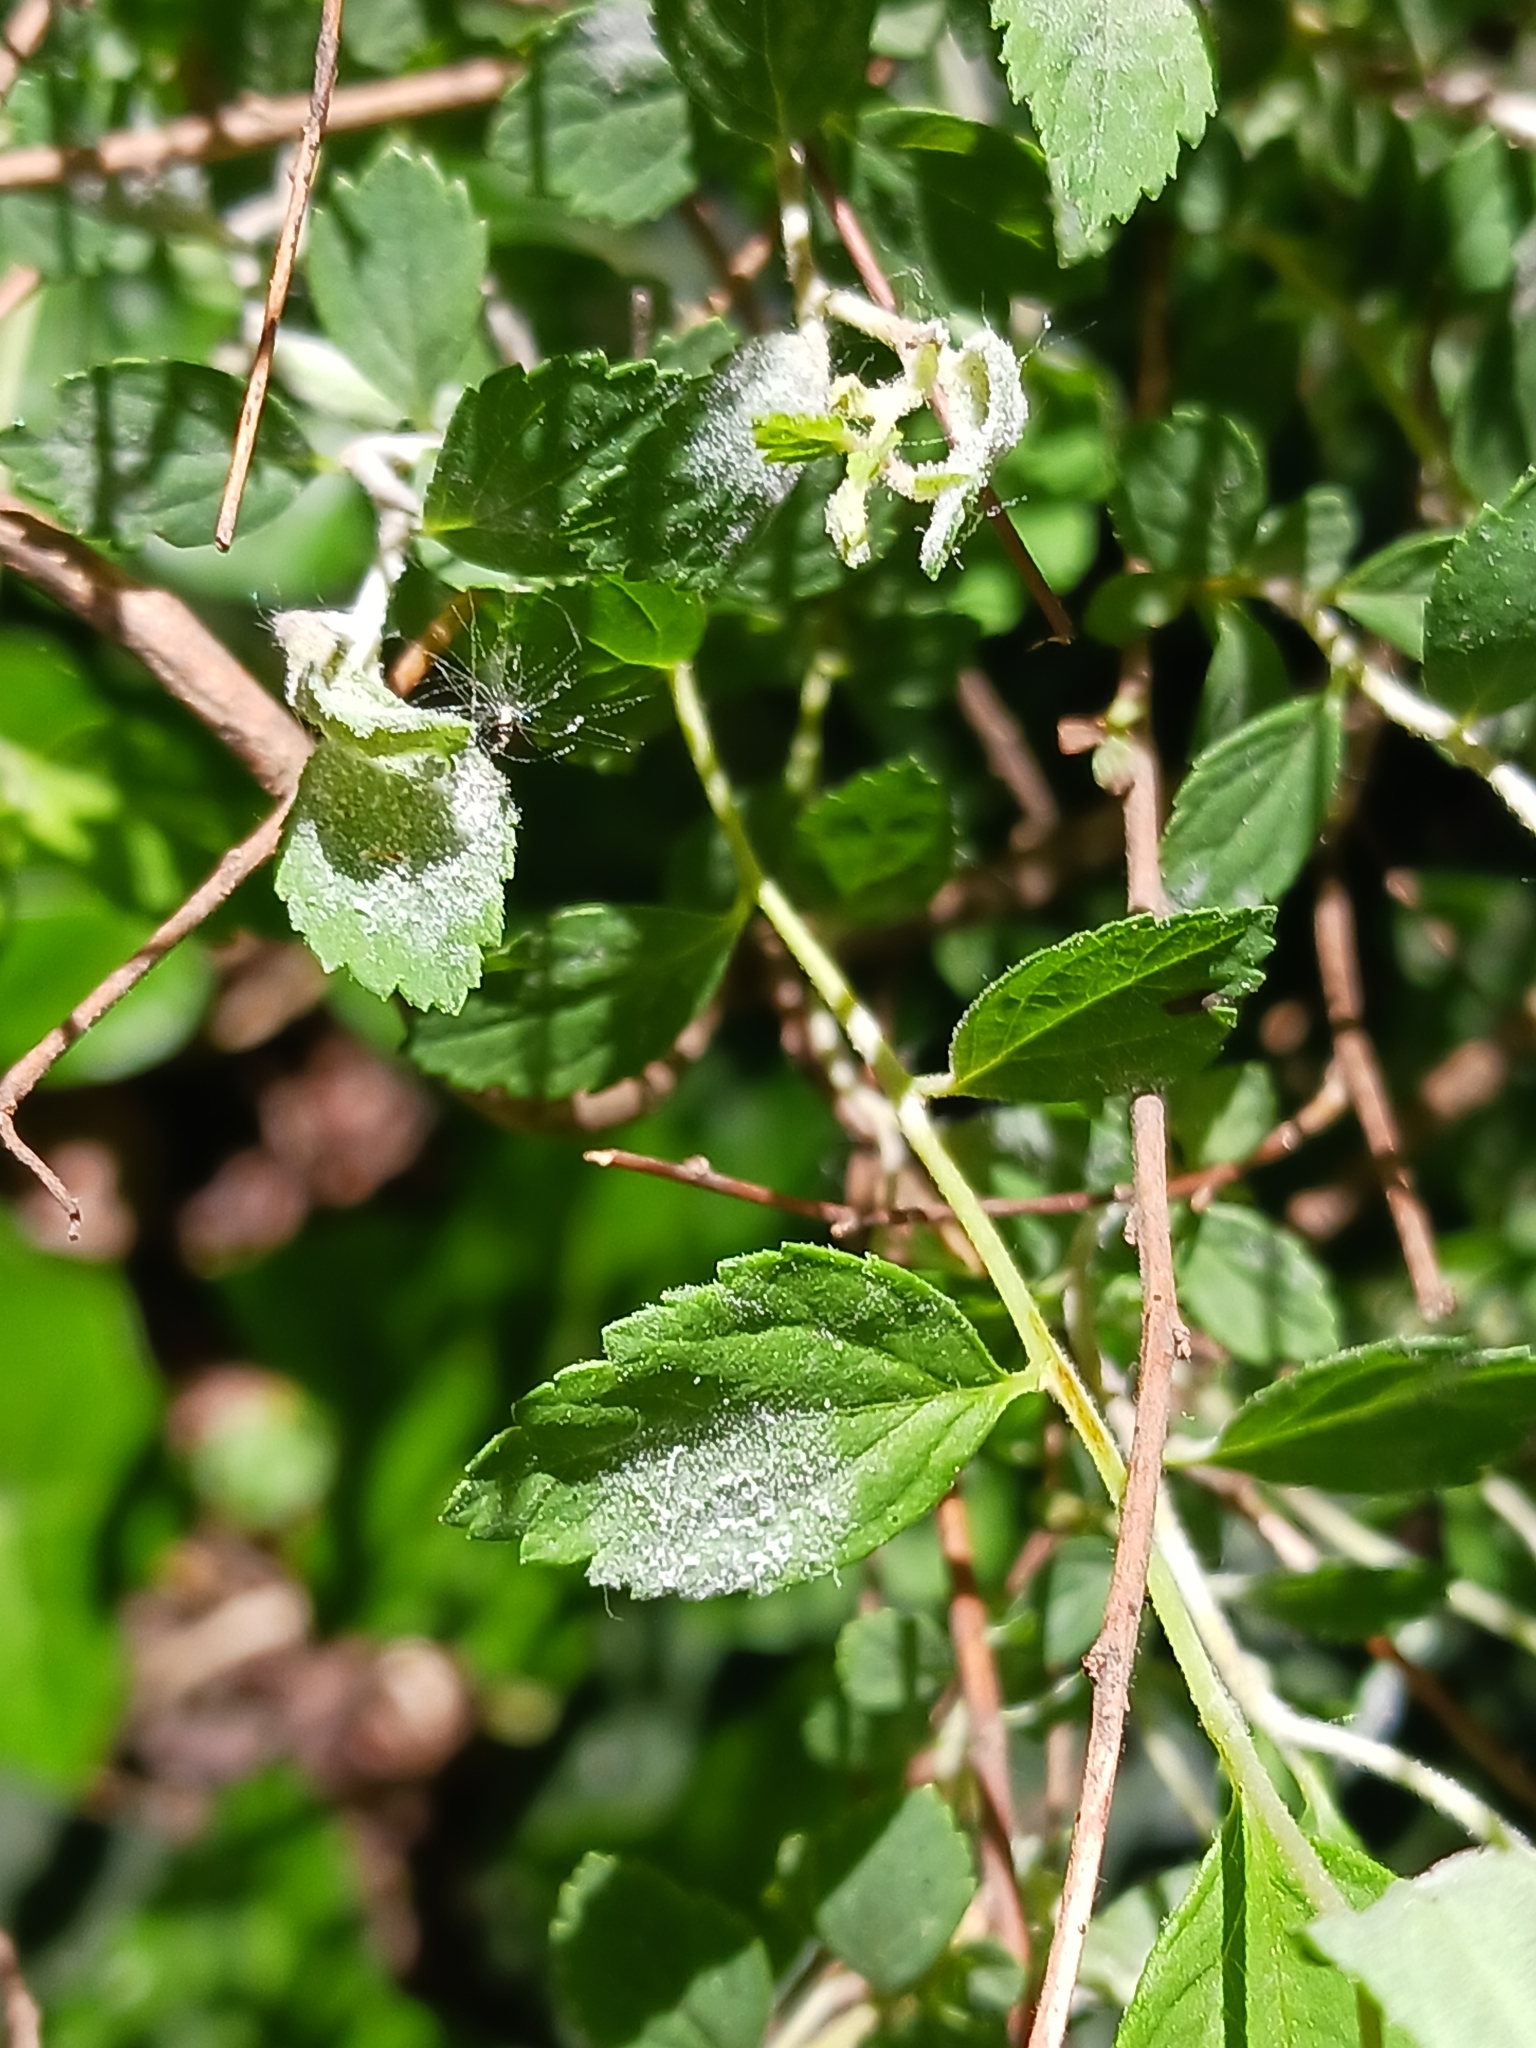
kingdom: Fungi
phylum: Ascomycota
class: Leotiomycetes
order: Helotiales
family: Erysiphaceae
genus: Podosphaera
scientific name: Podosphaera spiraeae
